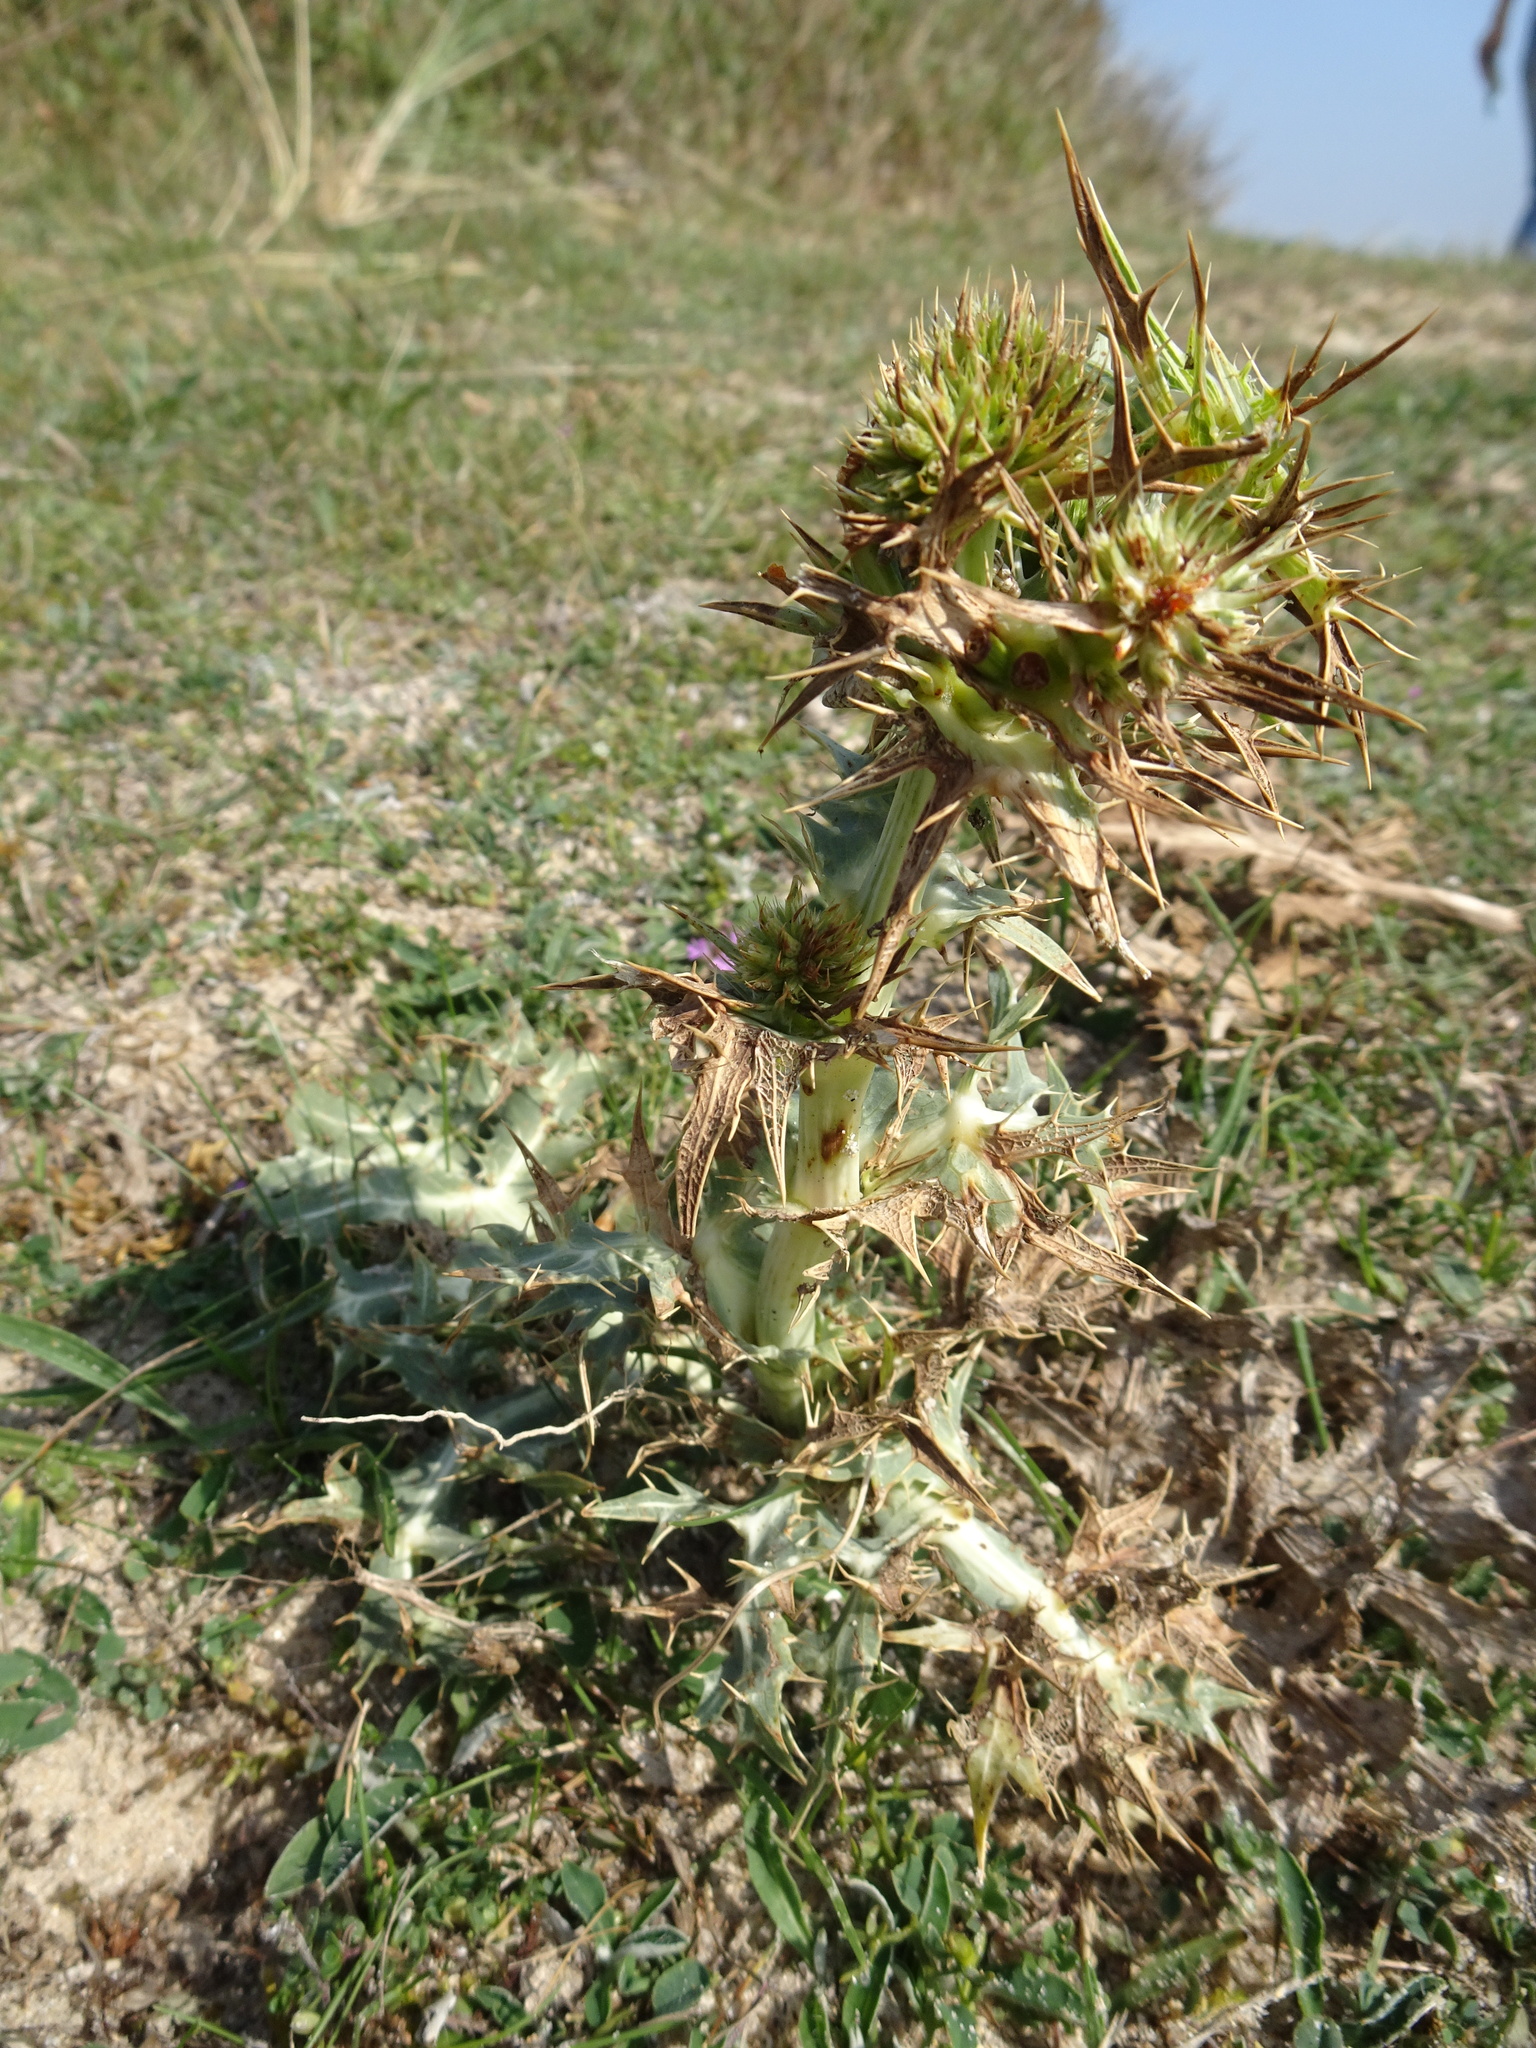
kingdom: Plantae
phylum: Tracheophyta
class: Magnoliopsida
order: Apiales
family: Apiaceae
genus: Eryngium
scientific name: Eryngium campestre
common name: Field eryngo
